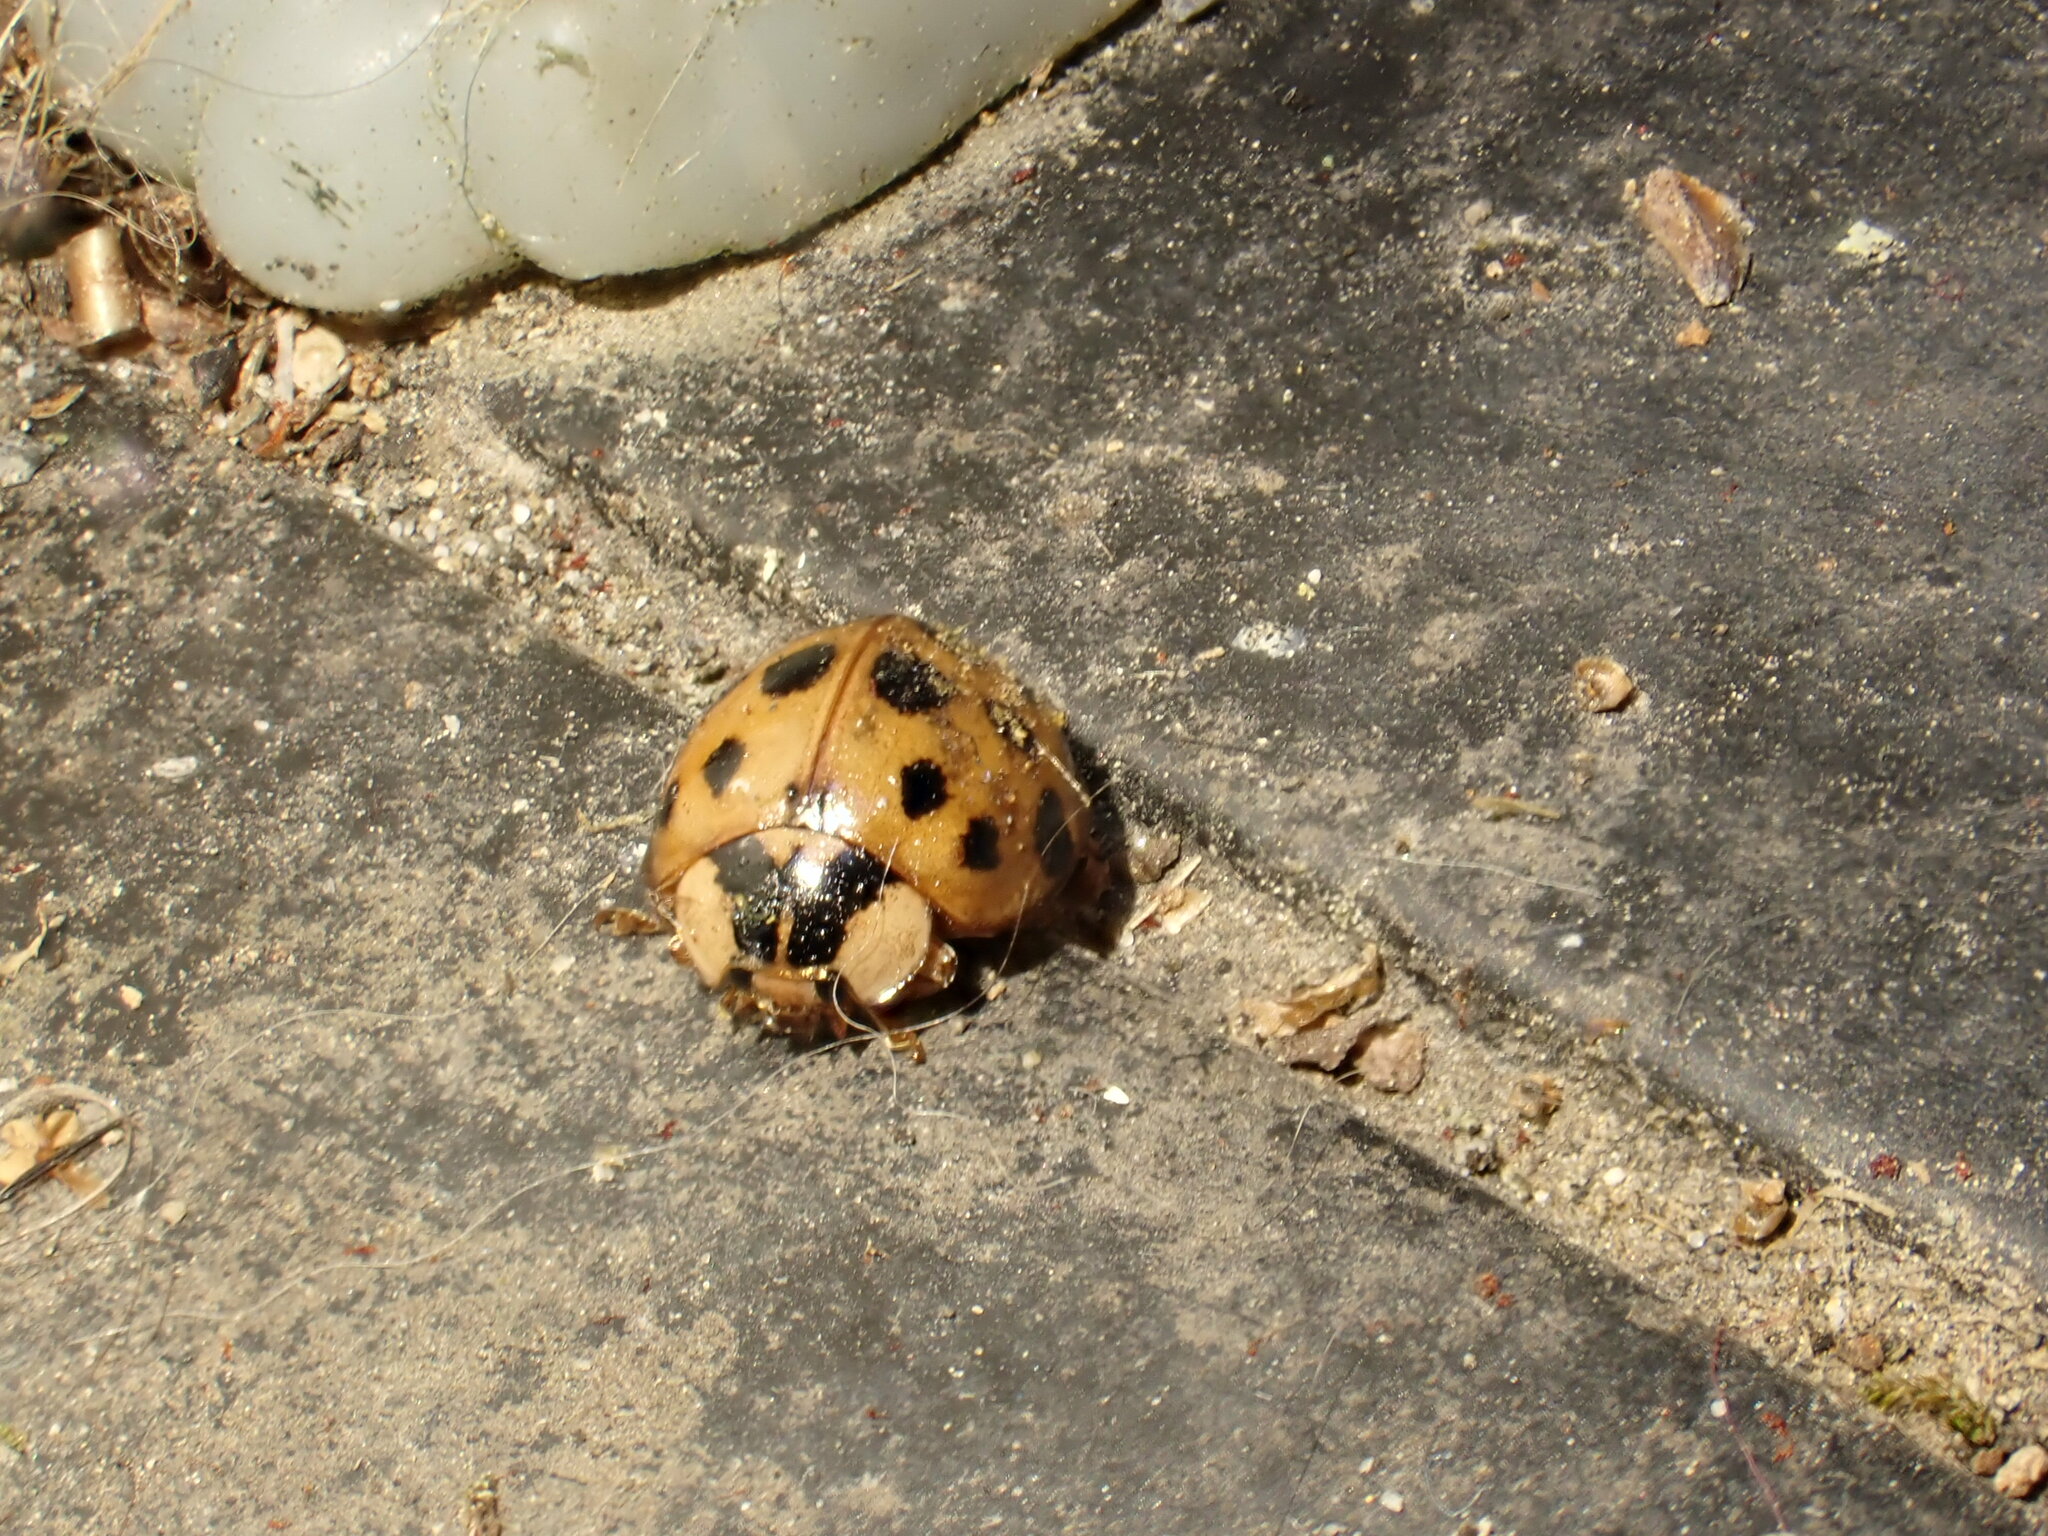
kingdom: Animalia
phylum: Arthropoda
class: Insecta
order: Coleoptera
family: Coccinellidae
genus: Harmonia
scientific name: Harmonia axyridis
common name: Harlequin ladybird
